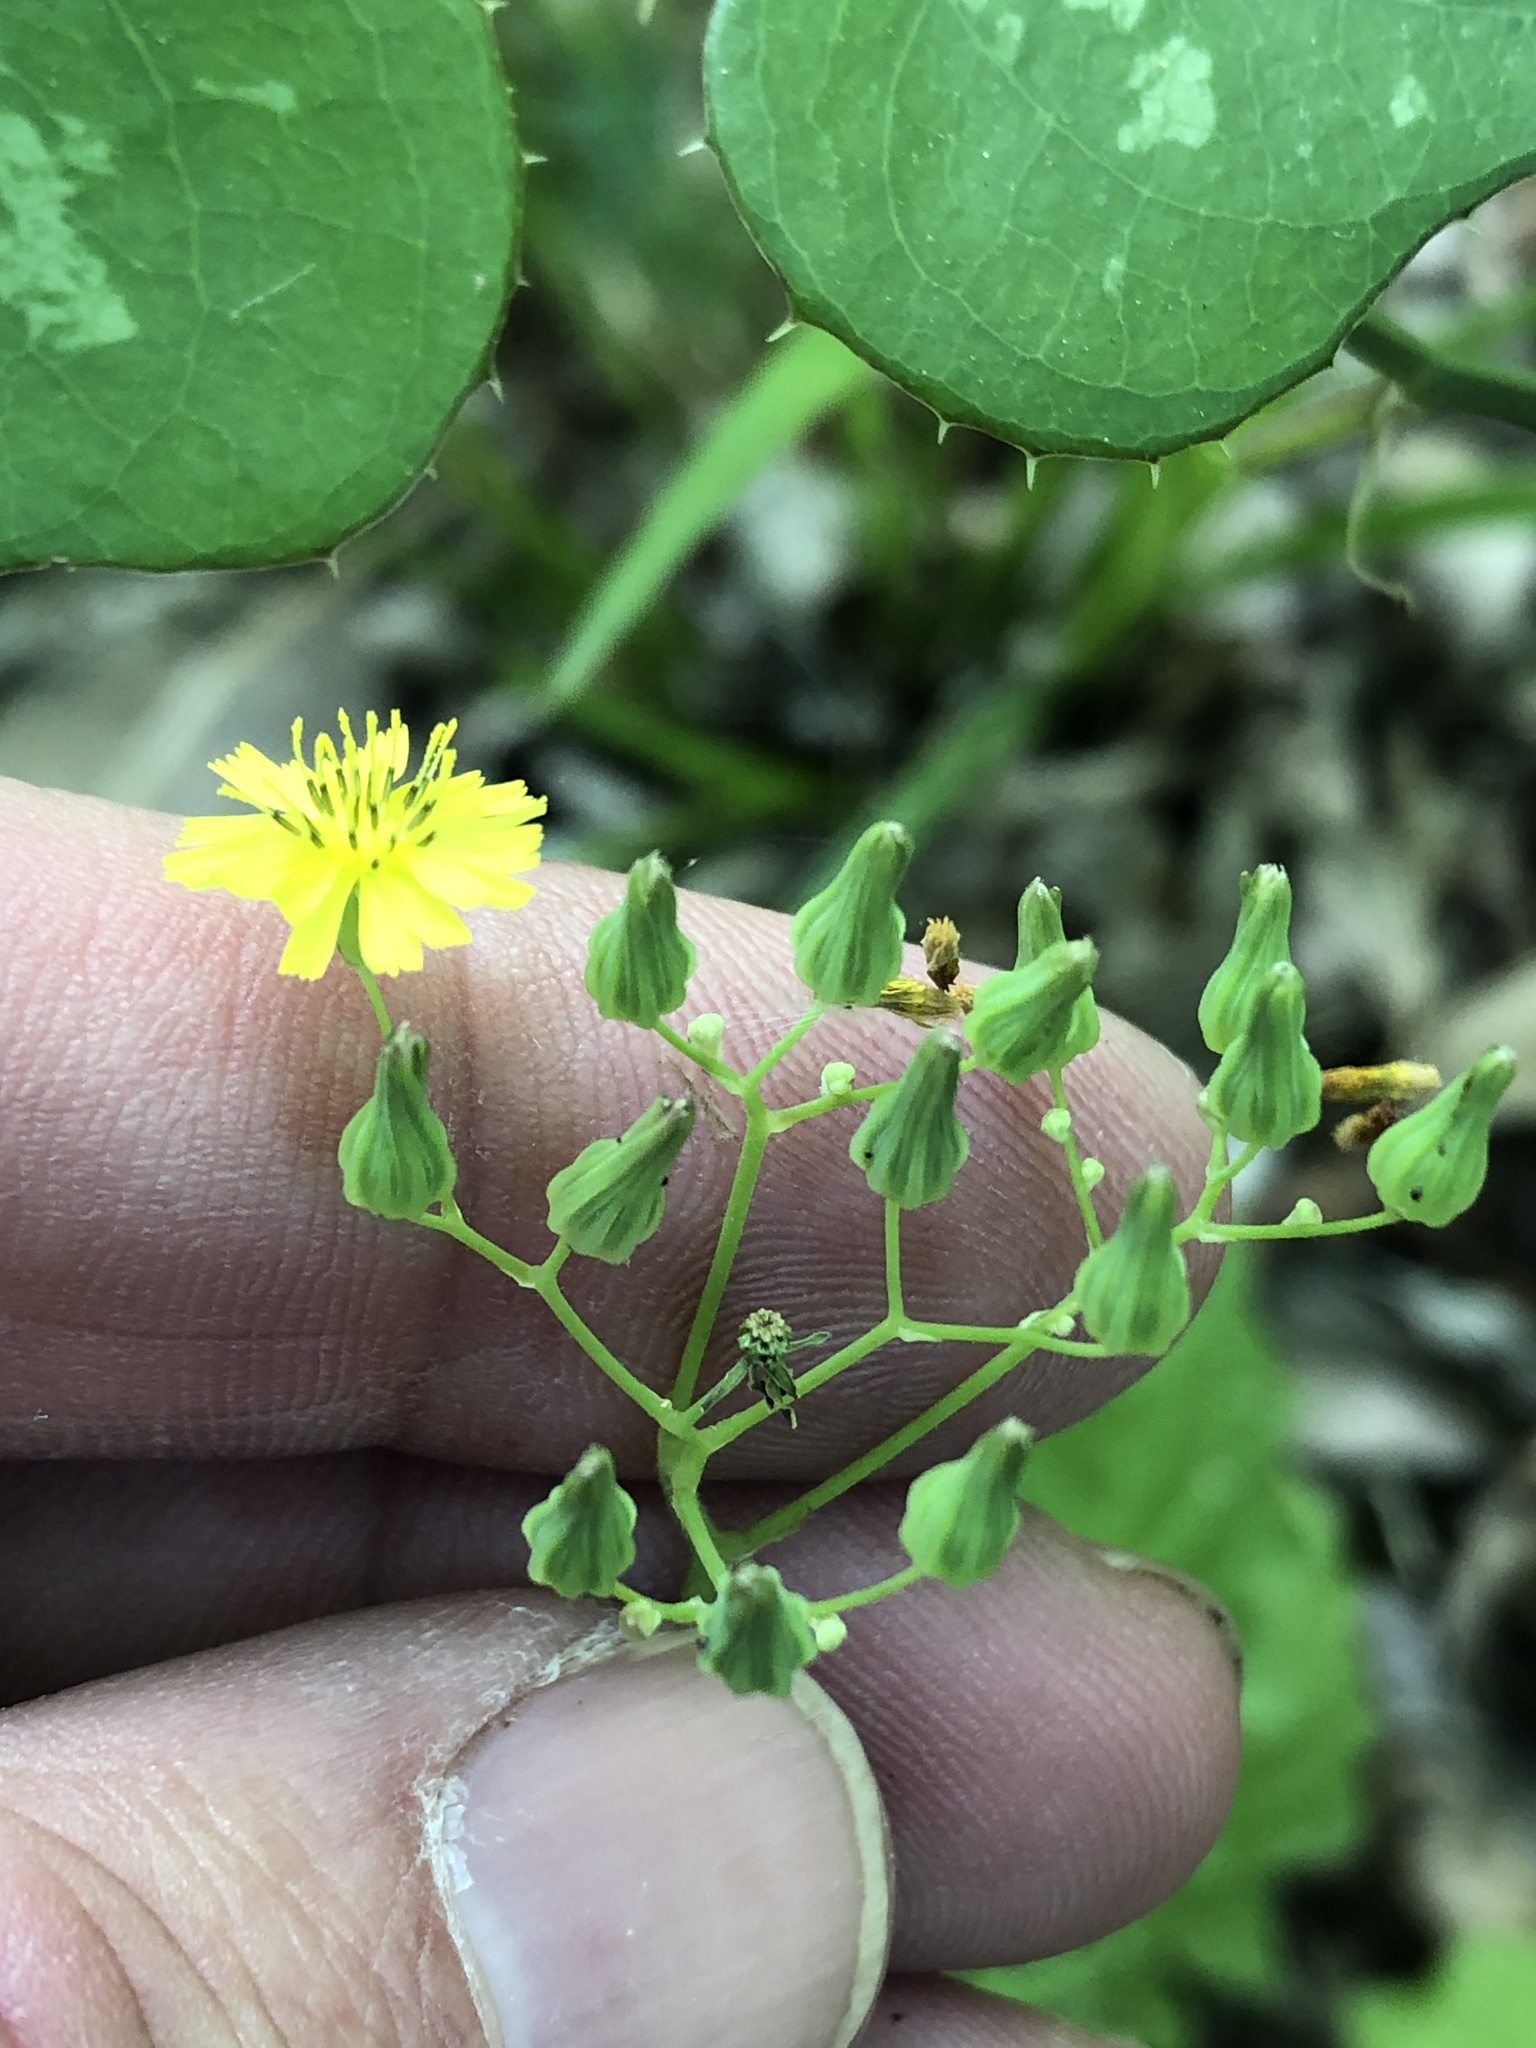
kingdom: Plantae
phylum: Tracheophyta
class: Magnoliopsida
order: Asterales
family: Asteraceae
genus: Youngia
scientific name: Youngia japonica
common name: Oriental false hawksbeard
